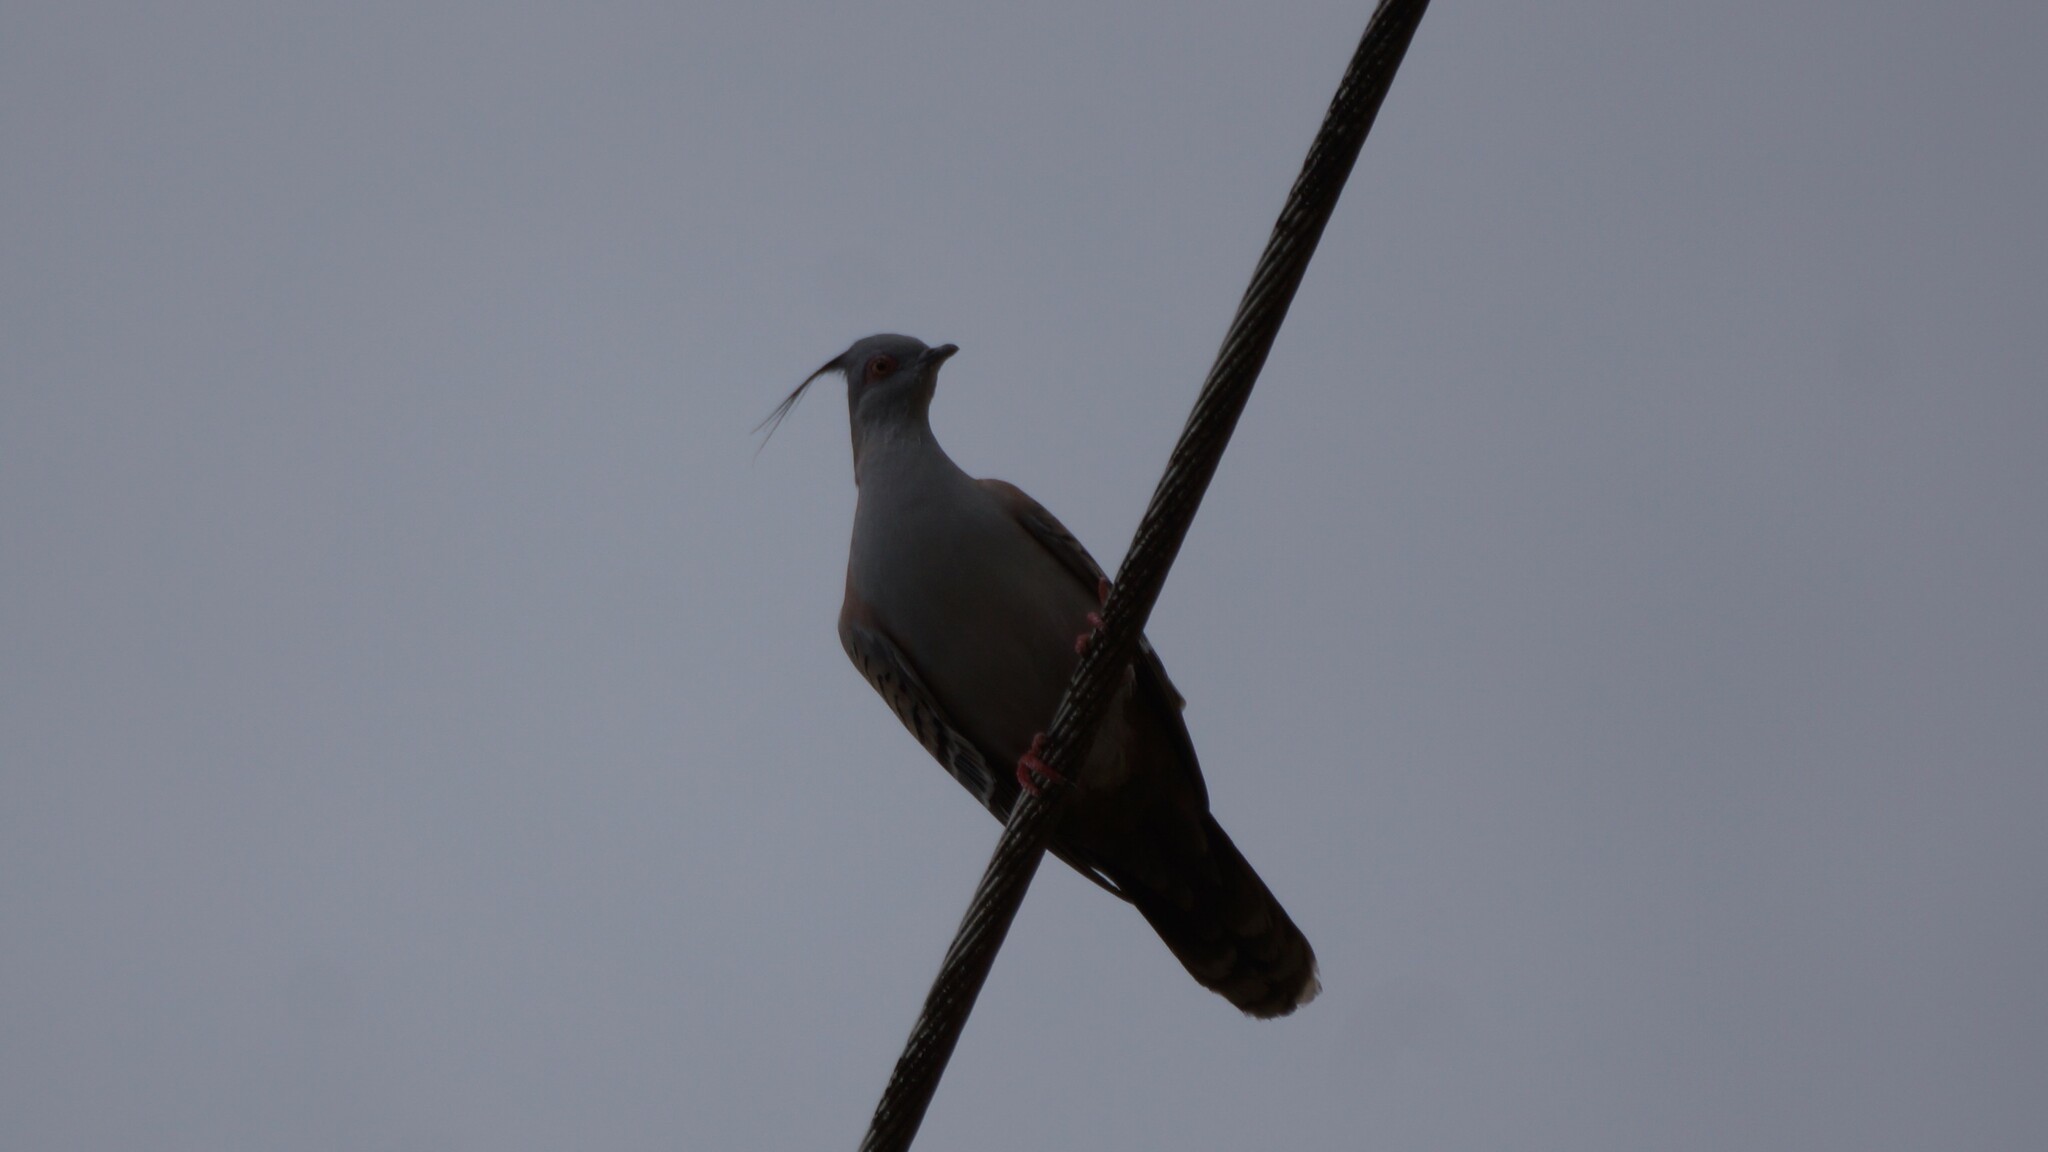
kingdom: Animalia
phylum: Chordata
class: Aves
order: Columbiformes
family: Columbidae
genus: Ocyphaps
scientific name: Ocyphaps lophotes
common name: Crested pigeon
